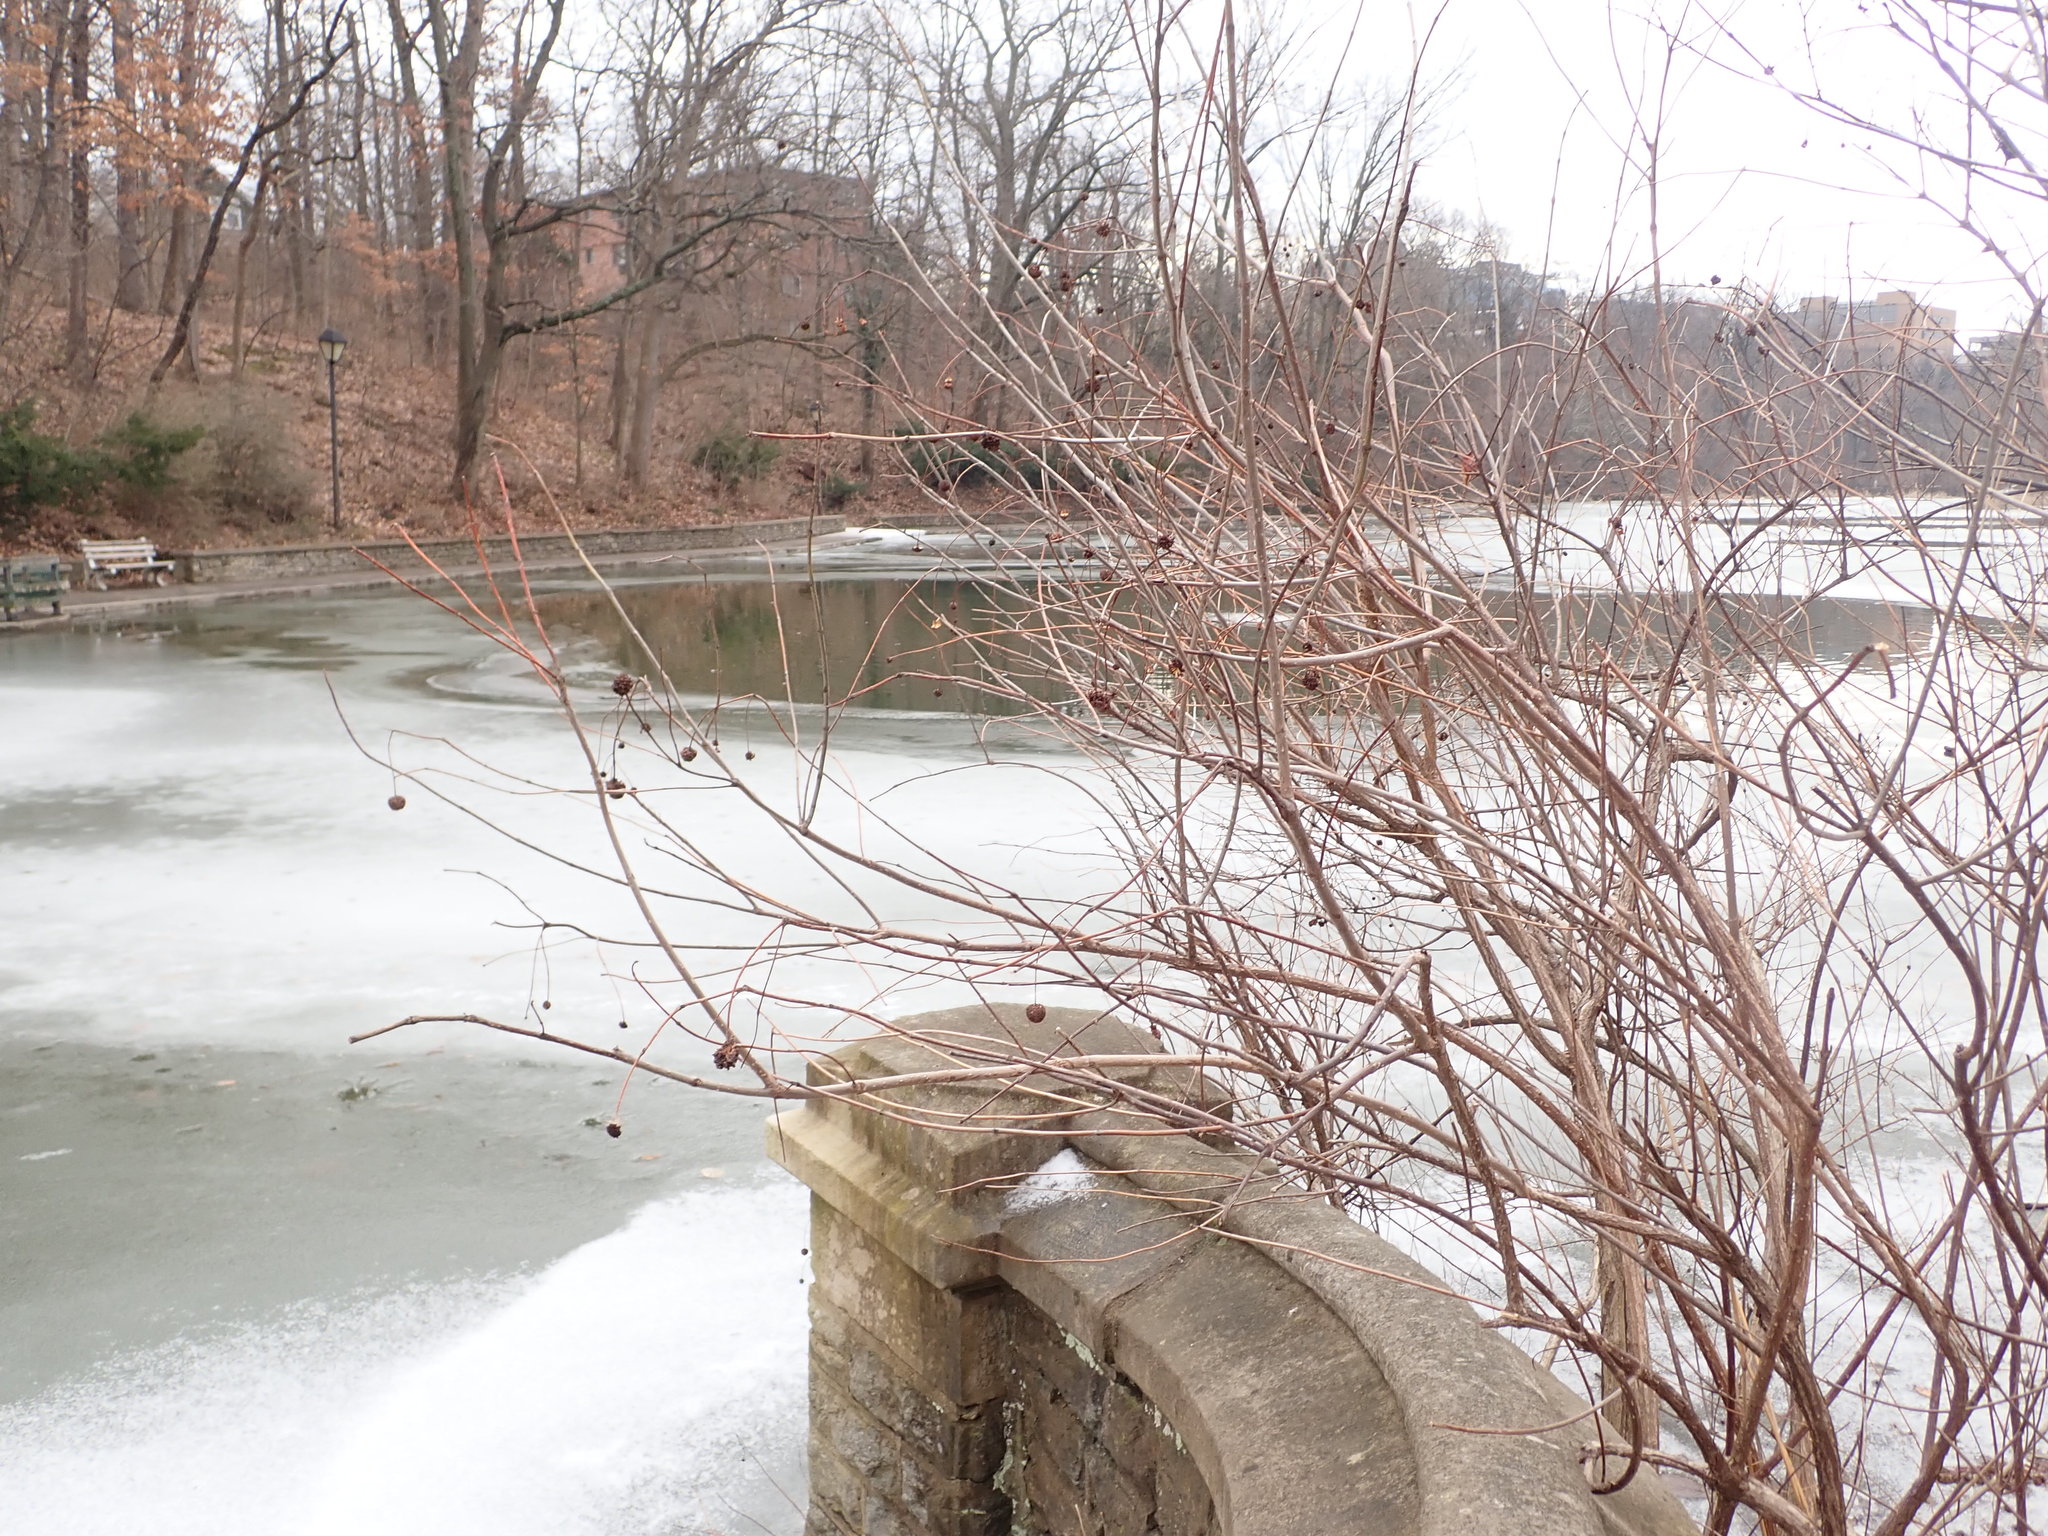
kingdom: Plantae
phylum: Tracheophyta
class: Magnoliopsida
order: Gentianales
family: Rubiaceae
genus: Cephalanthus
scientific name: Cephalanthus occidentalis
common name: Button-willow
